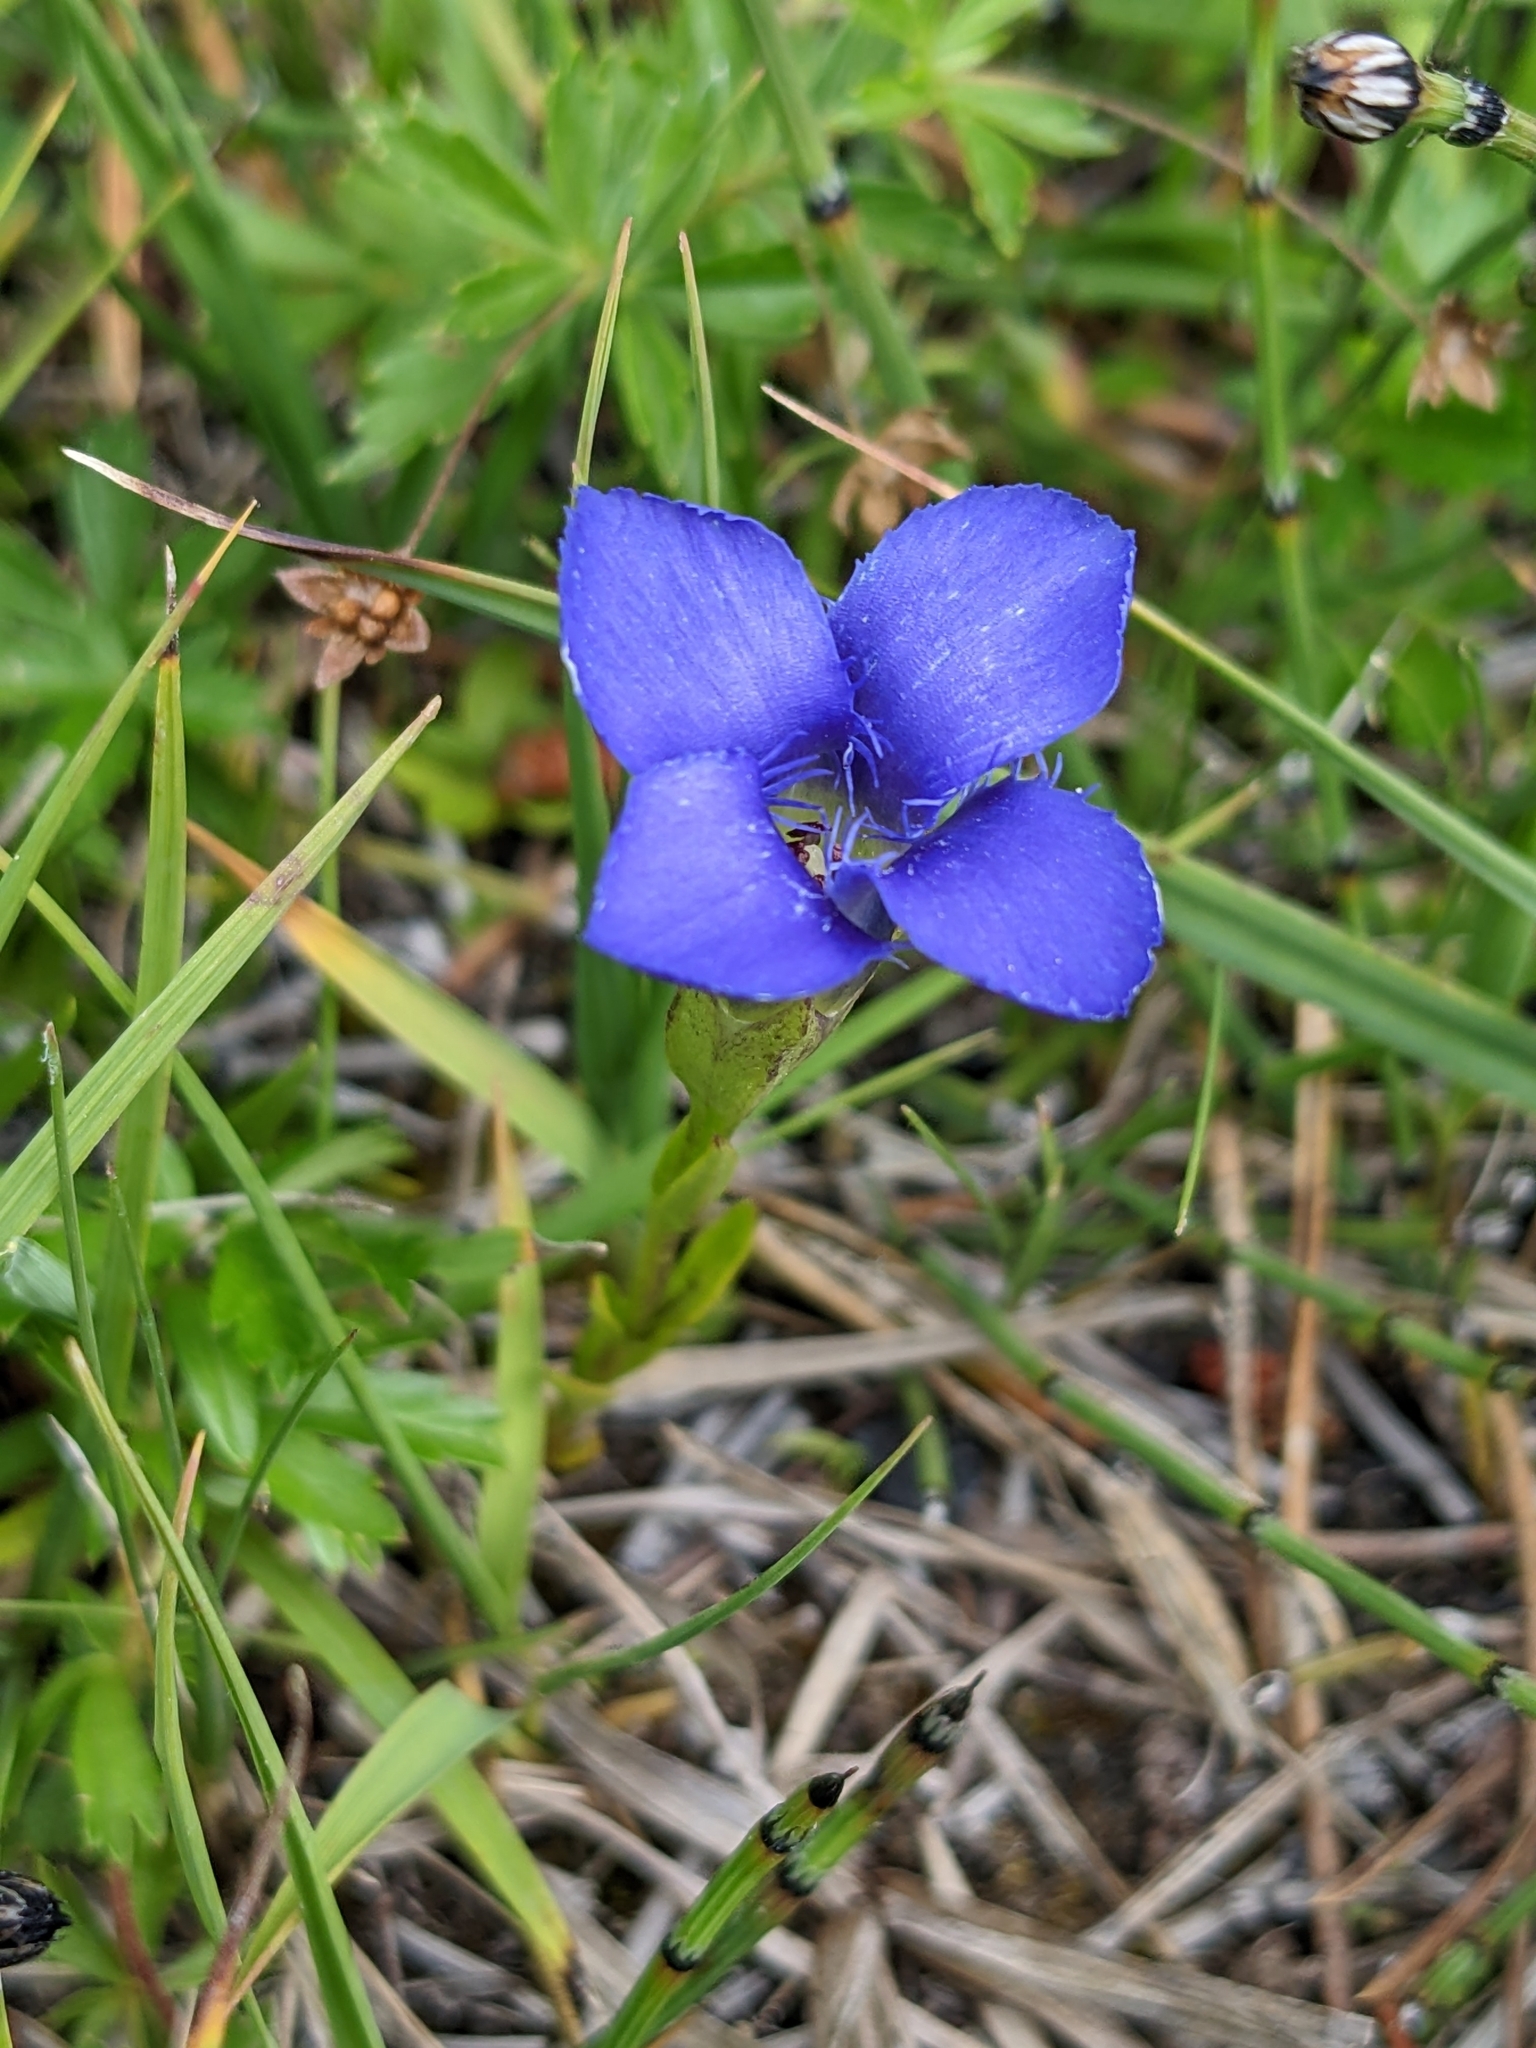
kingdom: Plantae
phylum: Tracheophyta
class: Magnoliopsida
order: Gentianales
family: Gentianaceae
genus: Gentianopsis
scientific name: Gentianopsis ciliata
